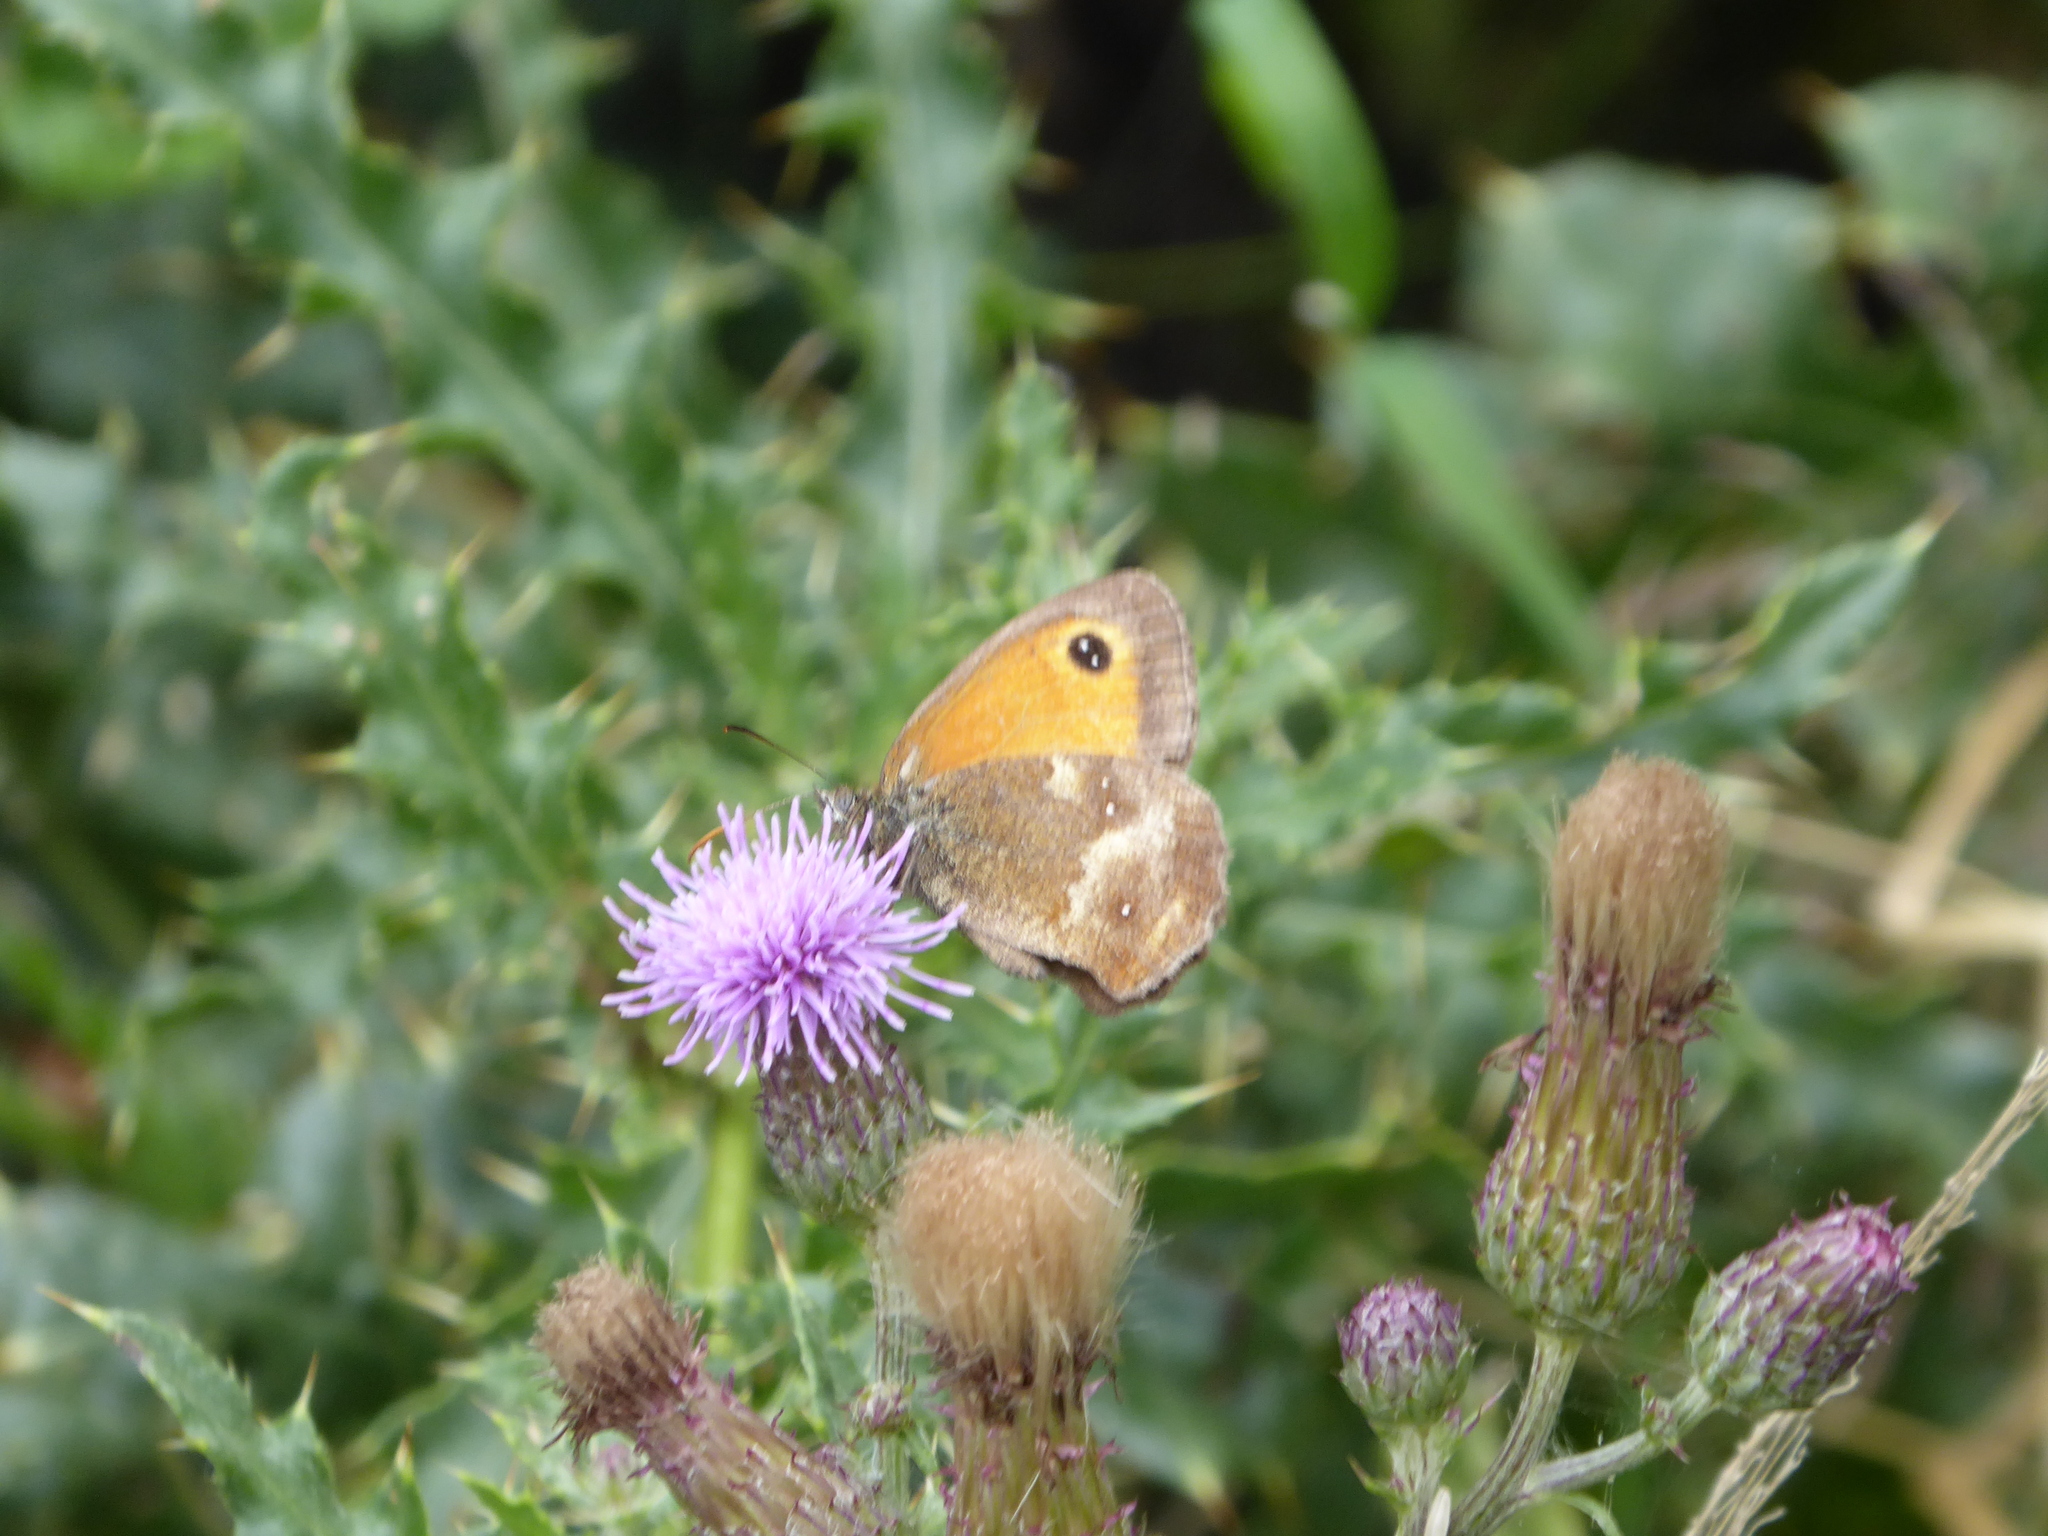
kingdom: Animalia
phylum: Arthropoda
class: Insecta
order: Lepidoptera
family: Nymphalidae
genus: Pyronia
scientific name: Pyronia tithonus
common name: Gatekeeper
